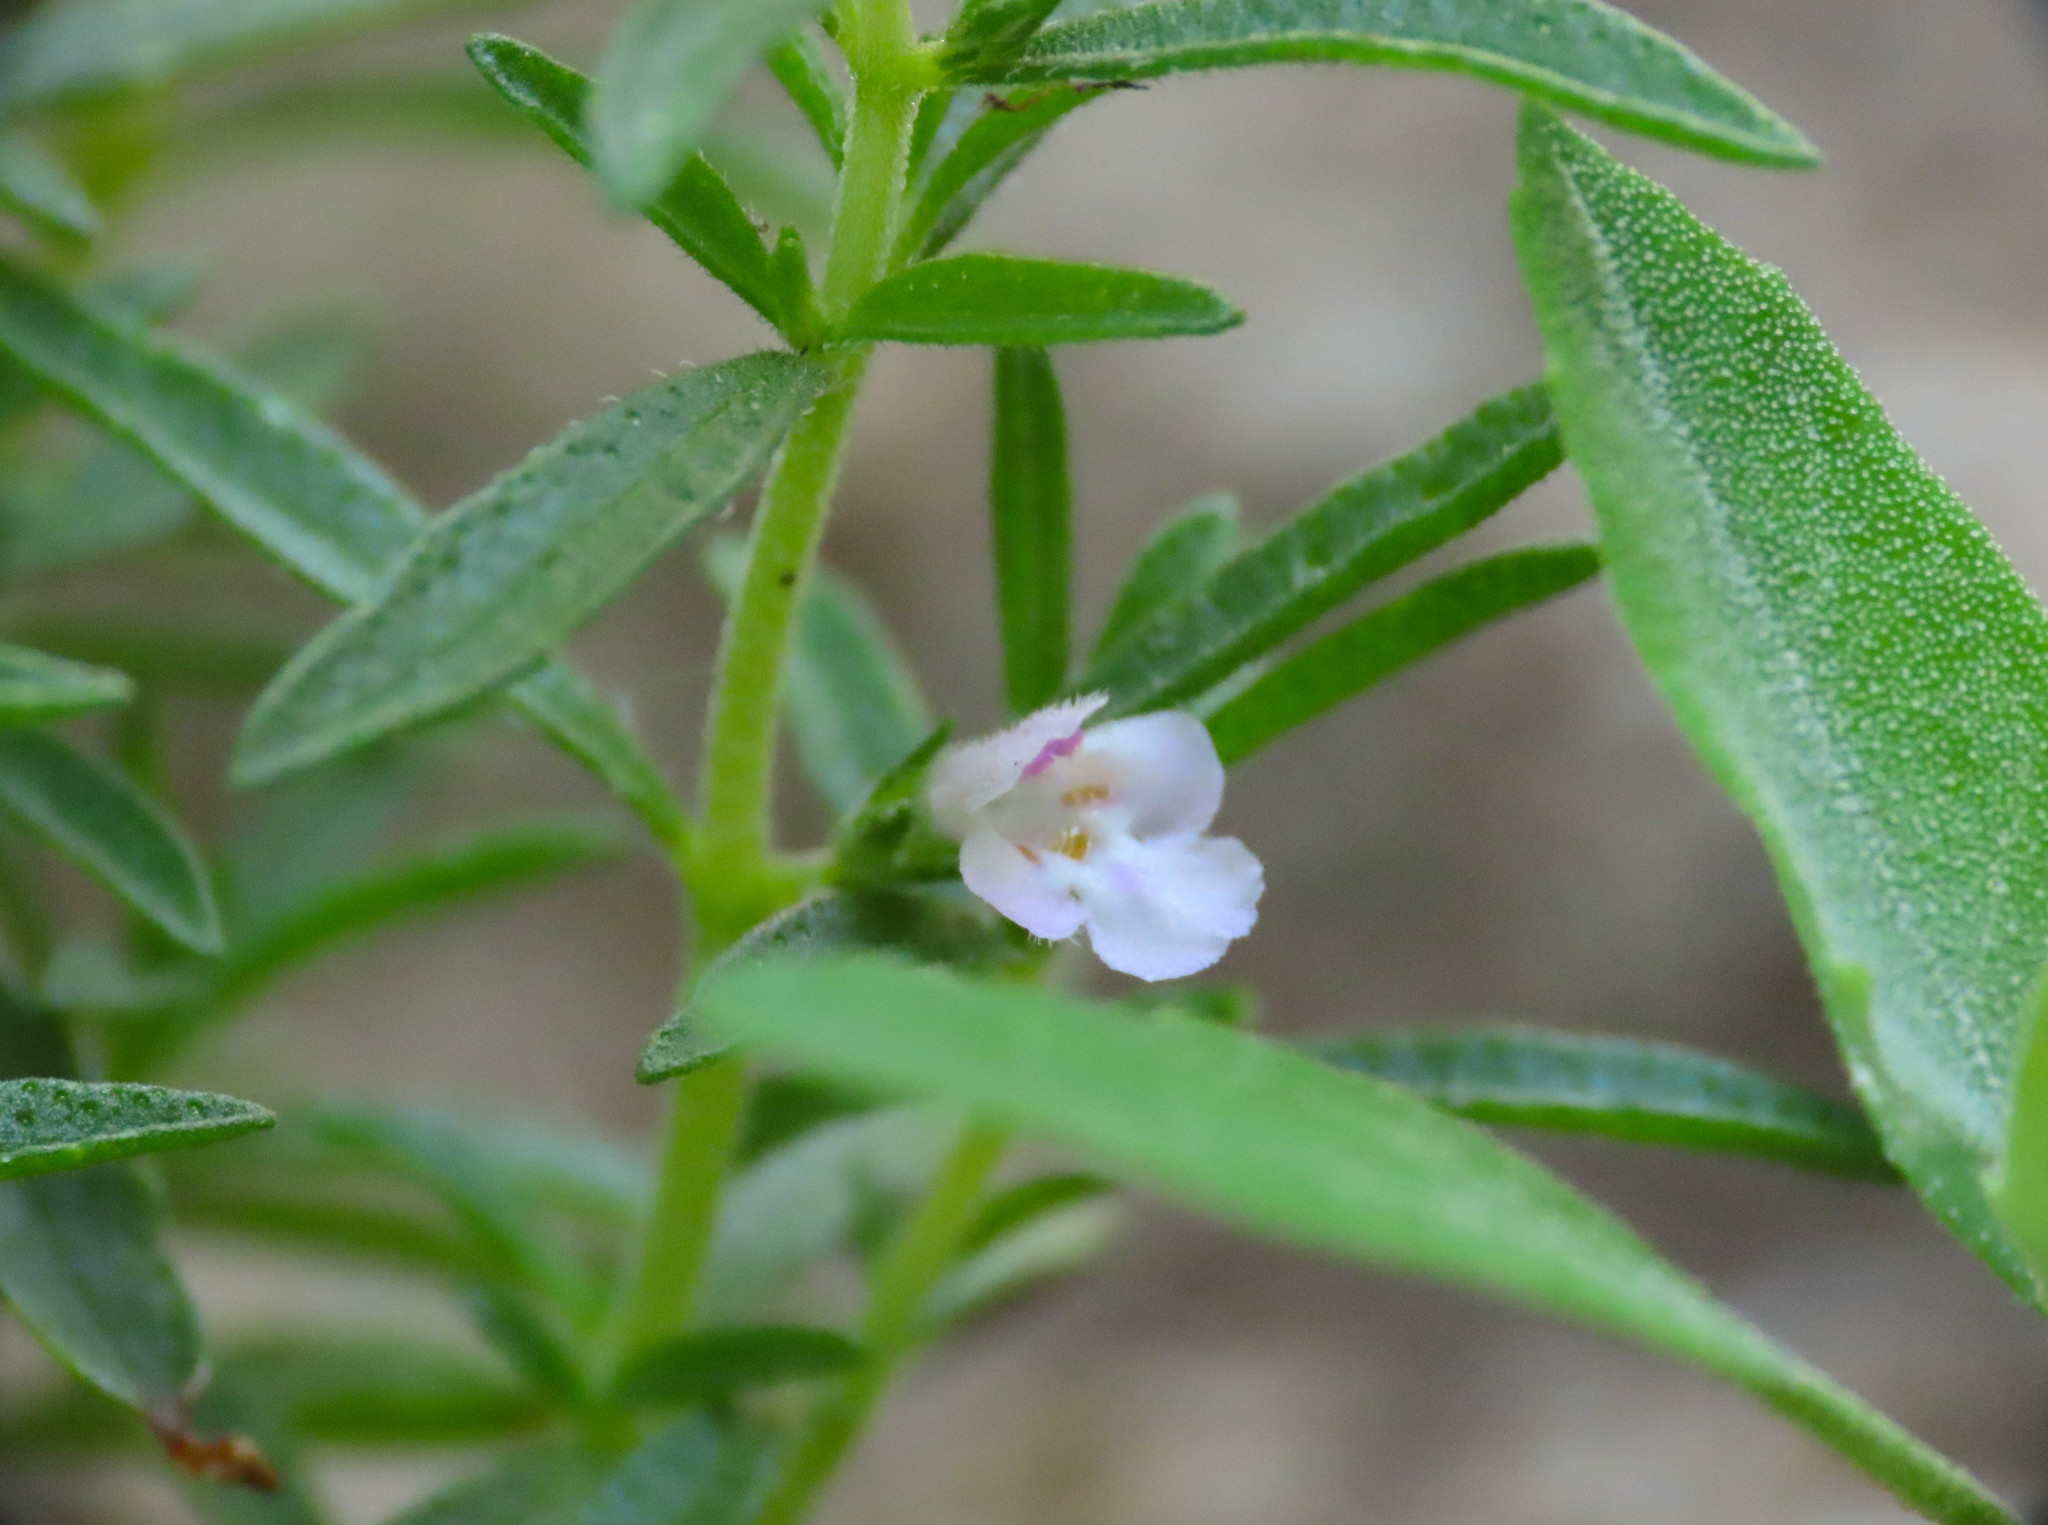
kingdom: Plantae
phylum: Tracheophyta
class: Magnoliopsida
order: Lamiales
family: Lamiaceae
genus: Satureja
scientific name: Satureja hortensis
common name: Summer savory
